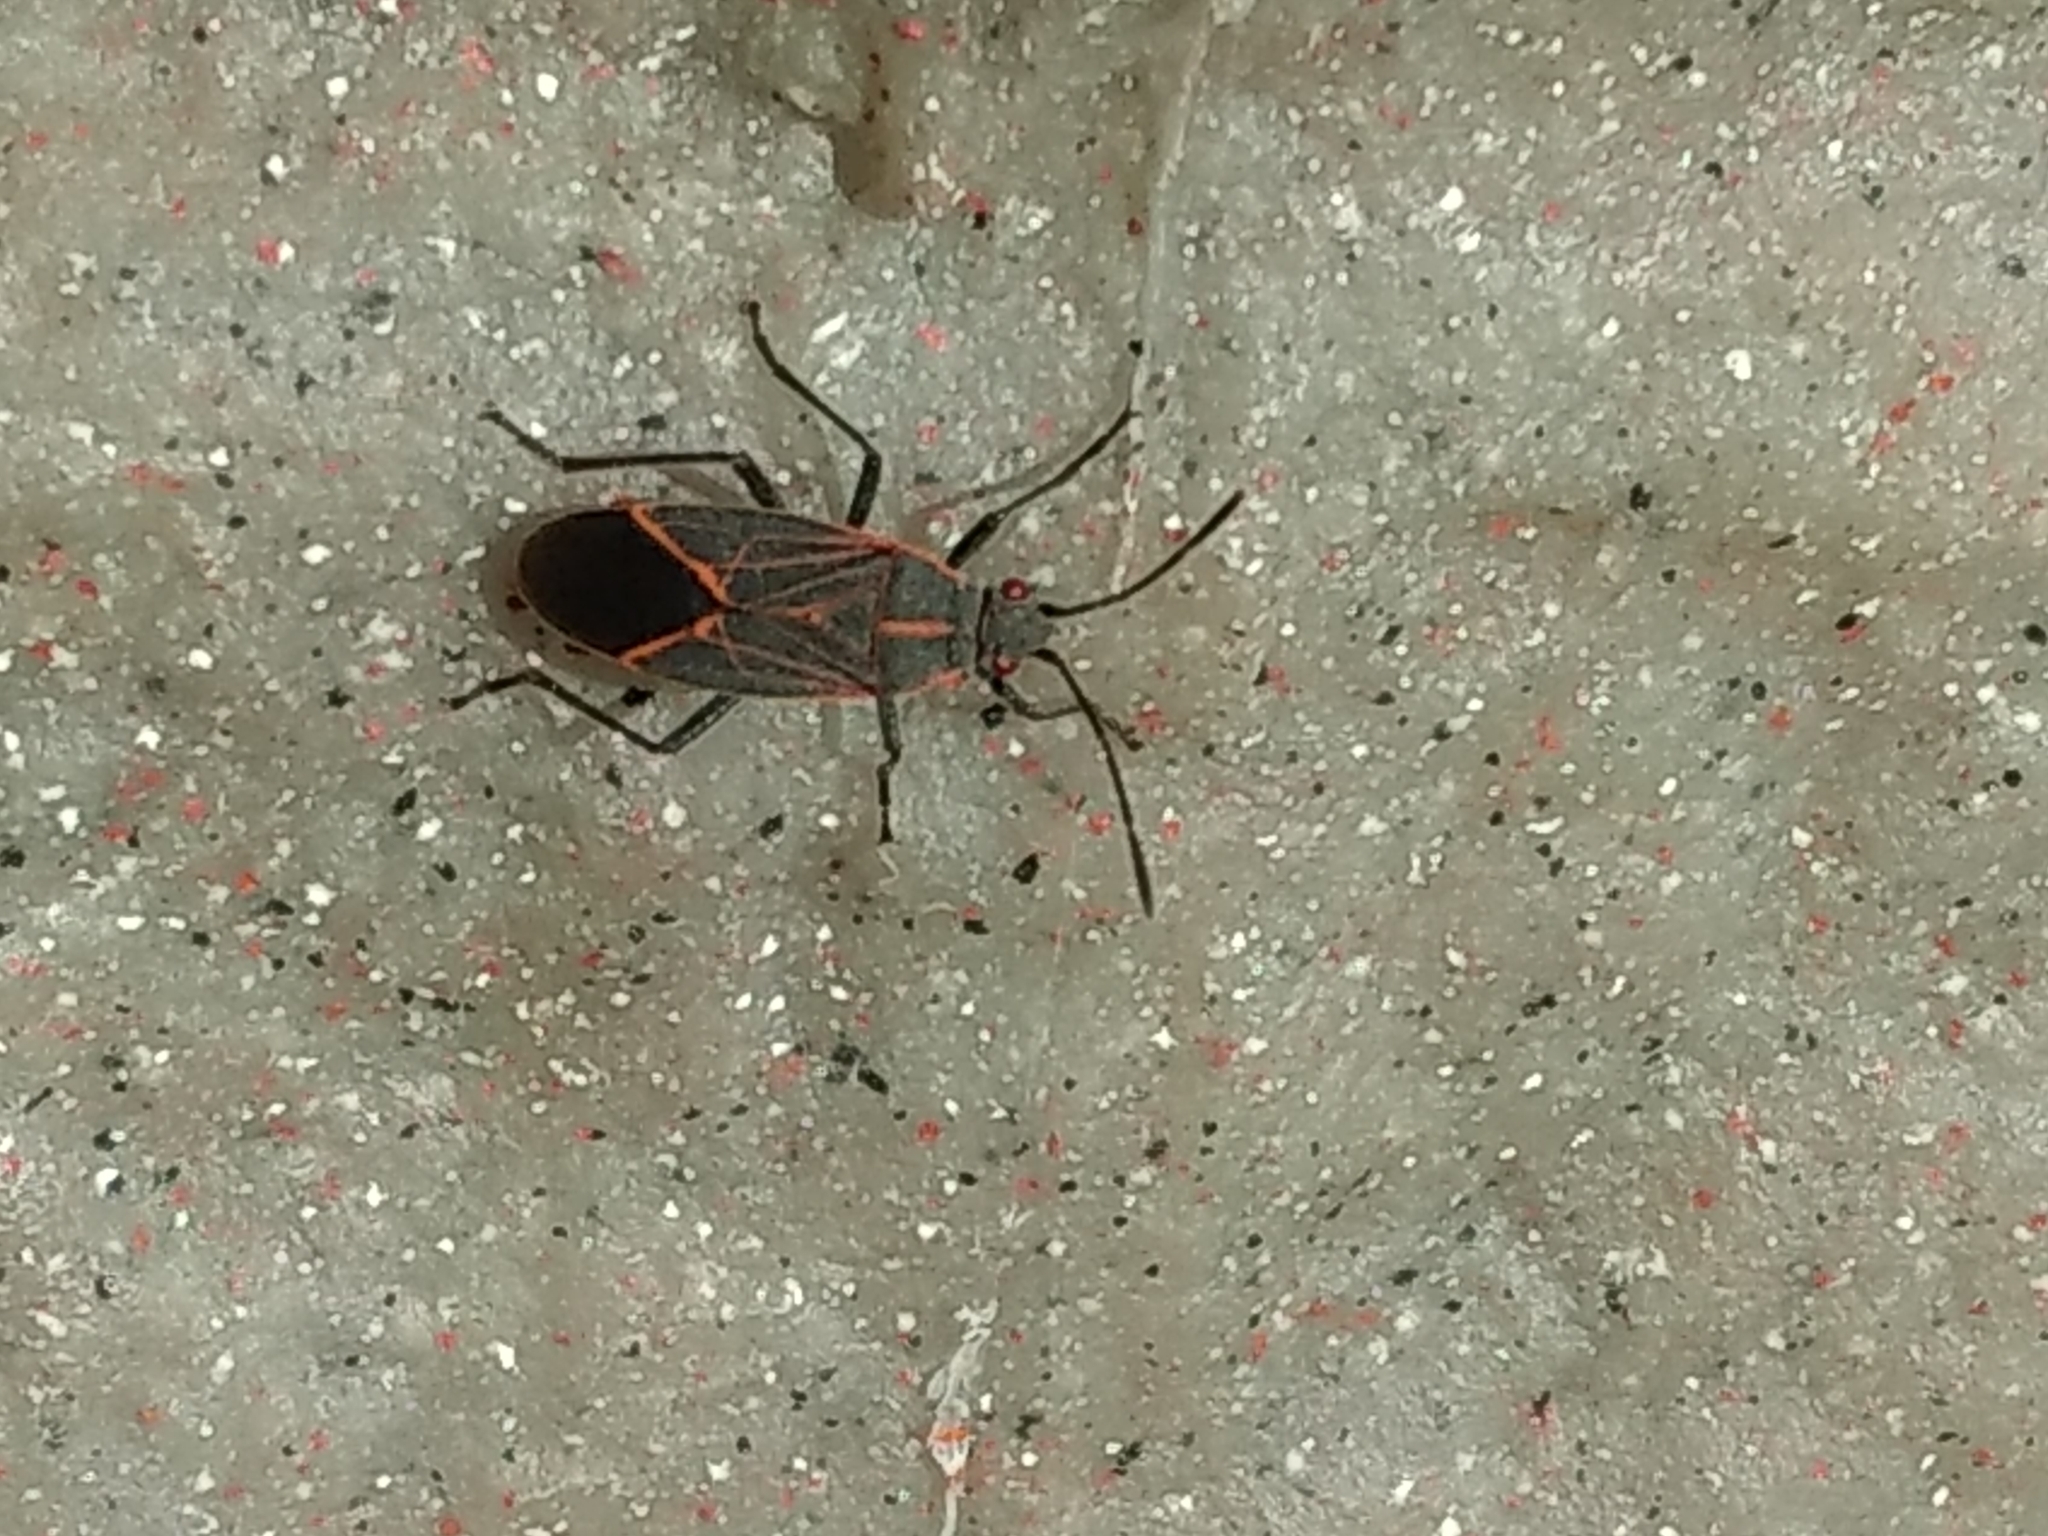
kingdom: Animalia
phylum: Arthropoda
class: Insecta
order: Hemiptera
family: Rhopalidae
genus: Boisea
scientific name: Boisea rubrolineata
